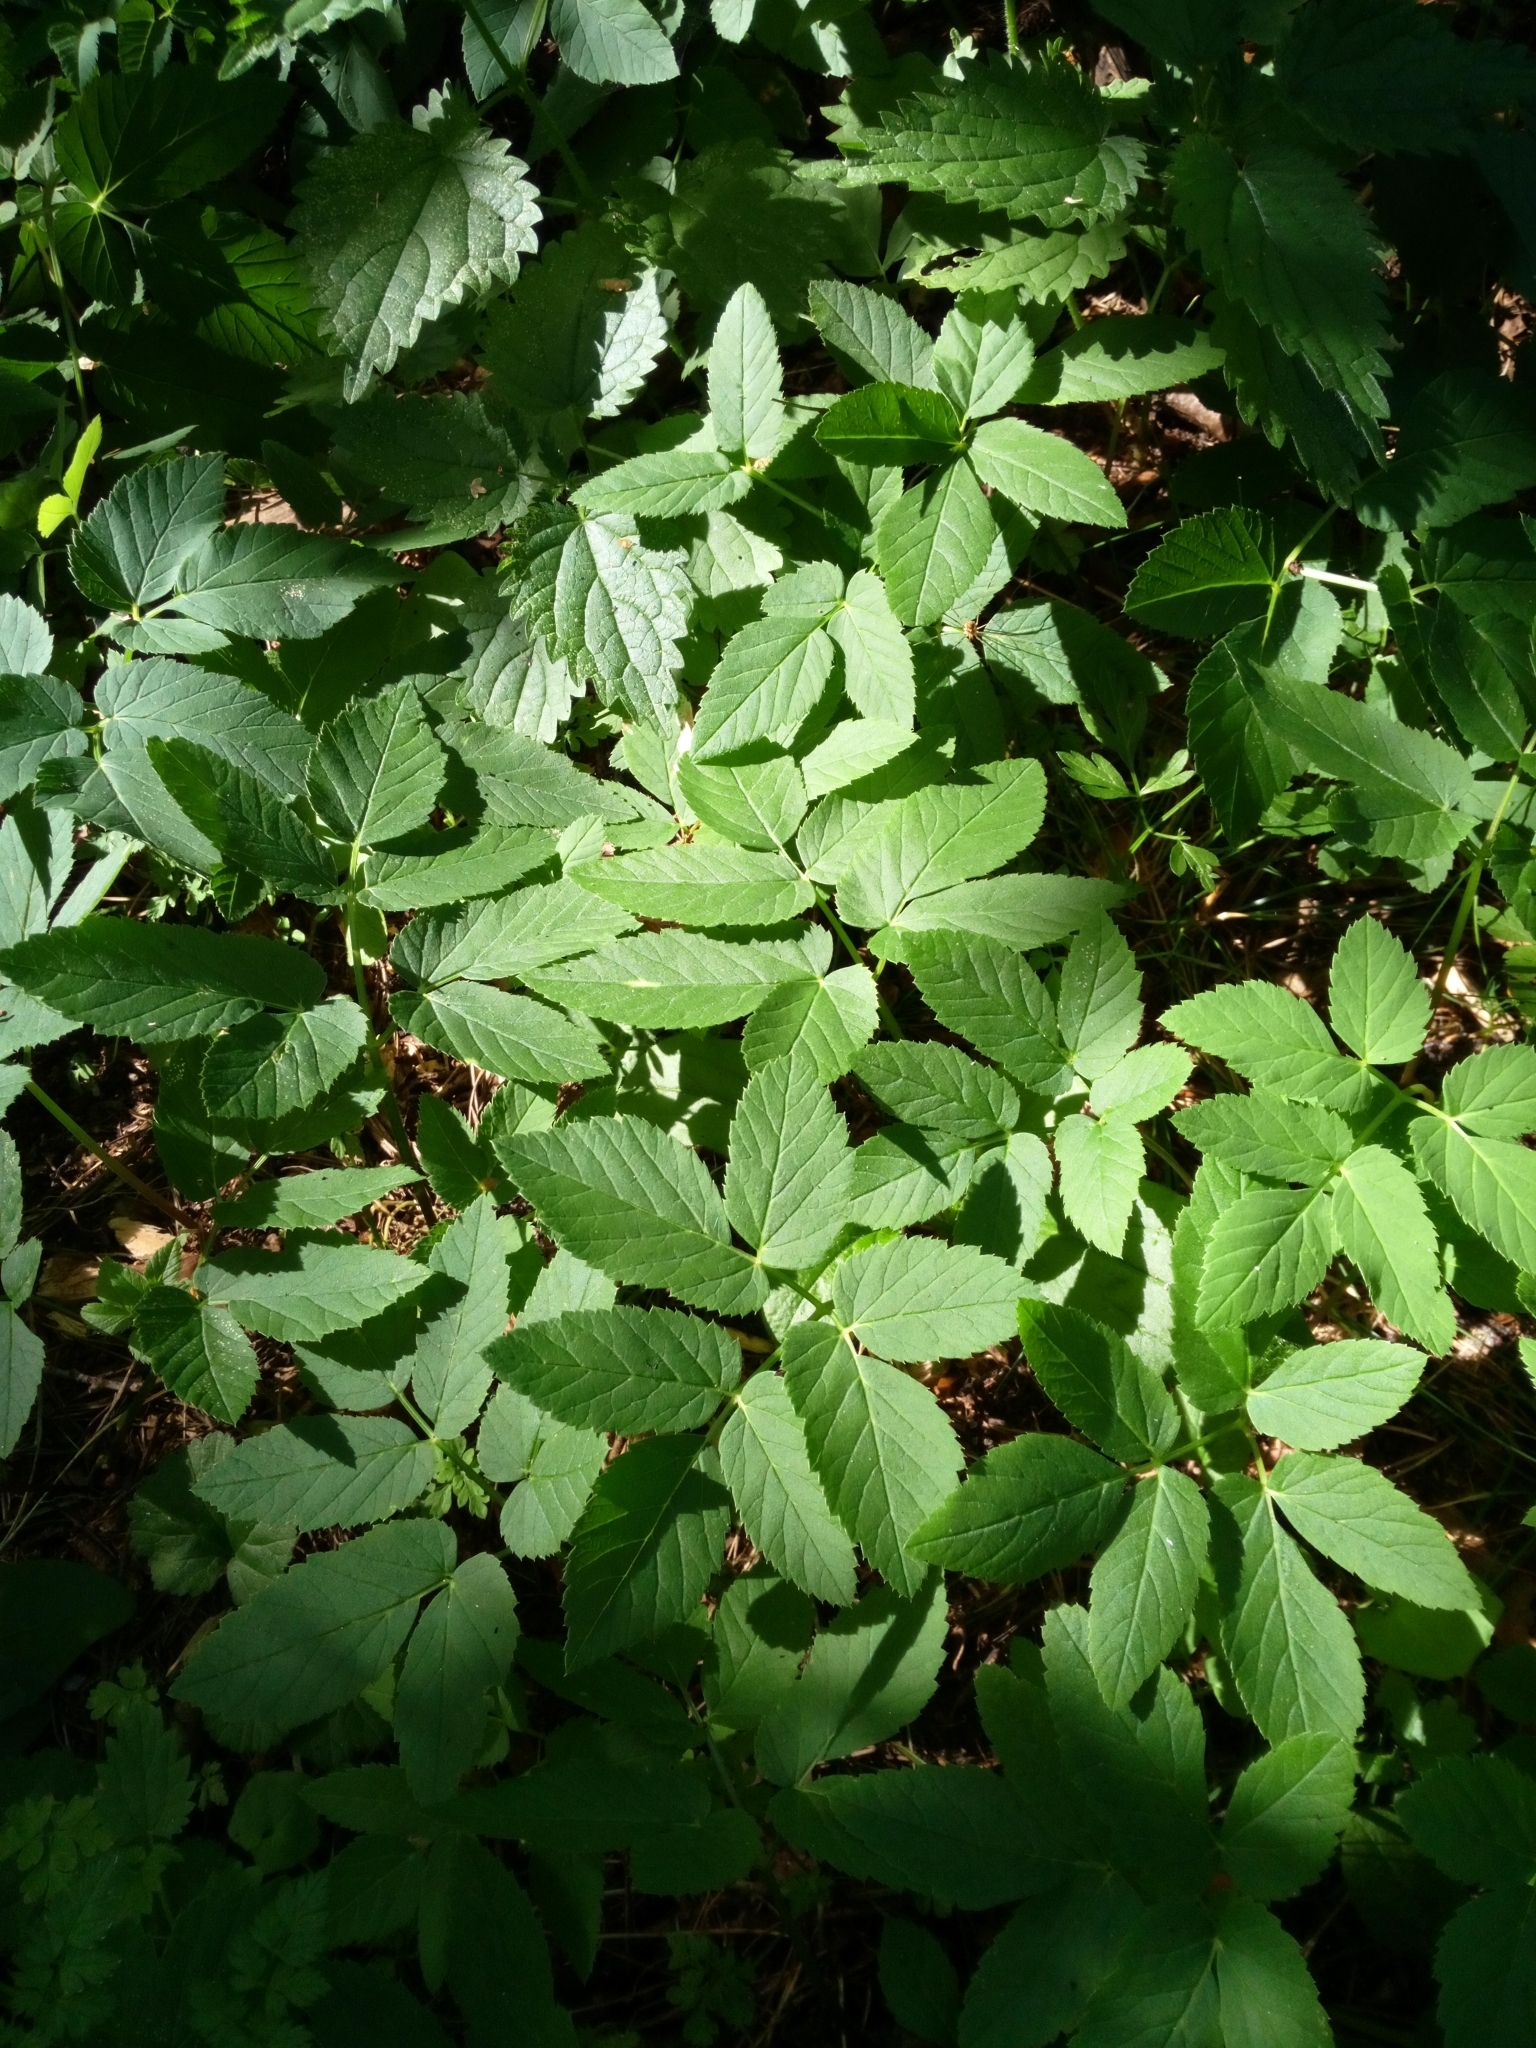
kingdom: Plantae
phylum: Tracheophyta
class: Magnoliopsida
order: Apiales
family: Apiaceae
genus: Aegopodium
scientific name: Aegopodium podagraria
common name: Ground-elder
